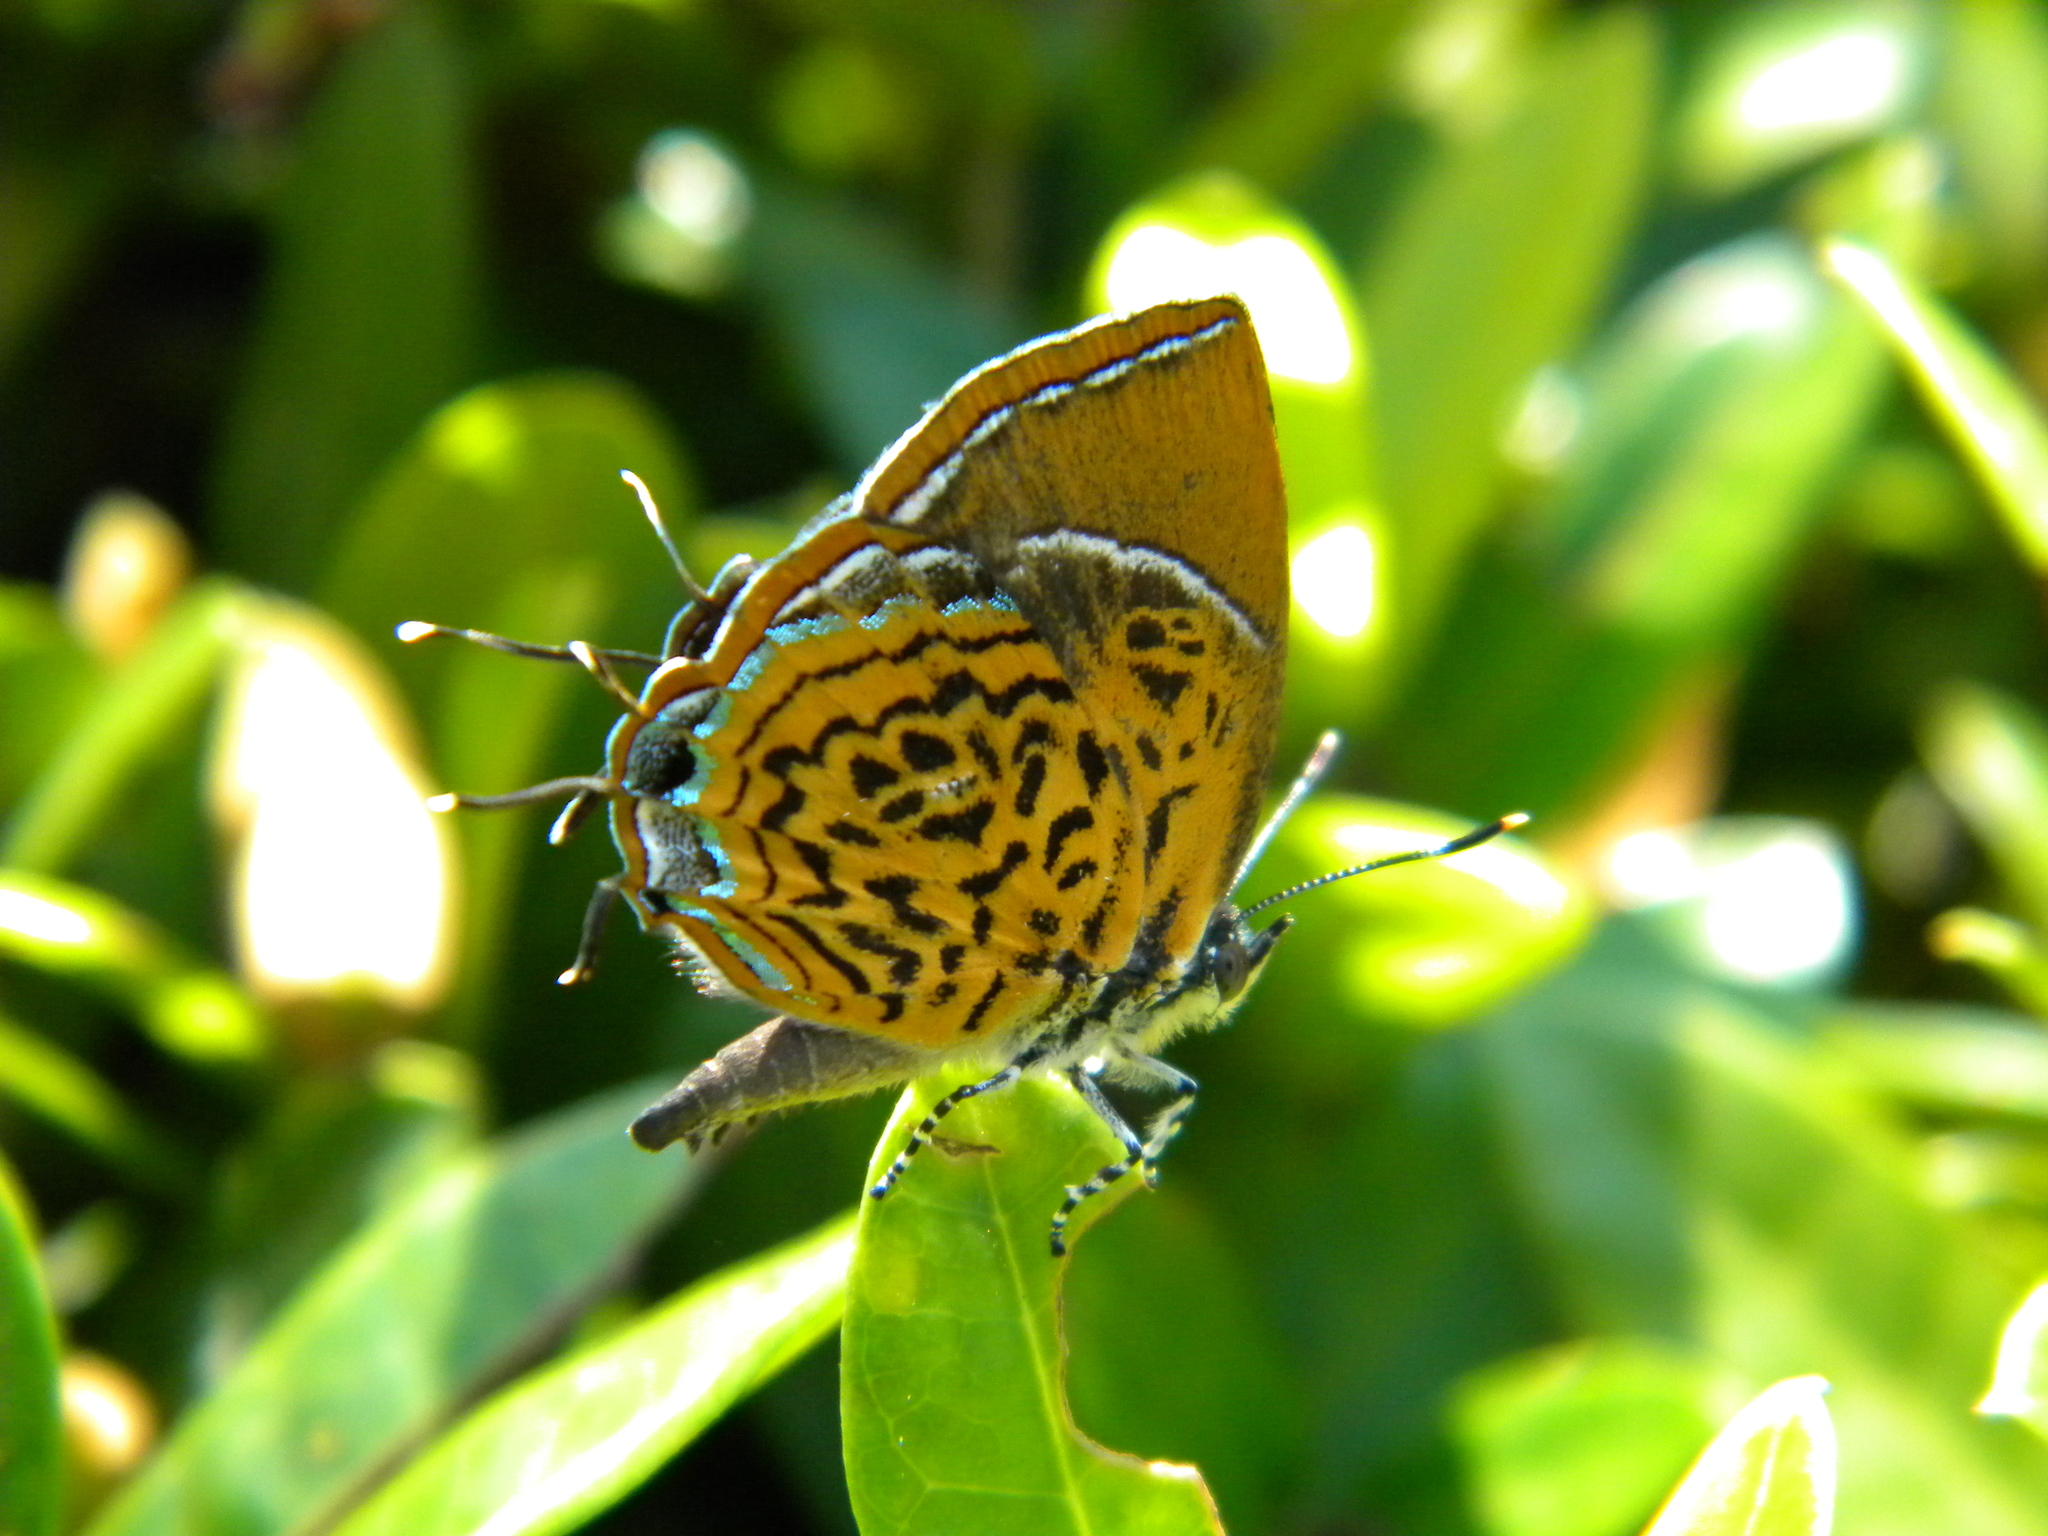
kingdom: Animalia
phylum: Arthropoda
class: Insecta
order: Lepidoptera
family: Lycaenidae
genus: Rathinda
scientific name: Rathinda amor
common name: Monkey puzzle
